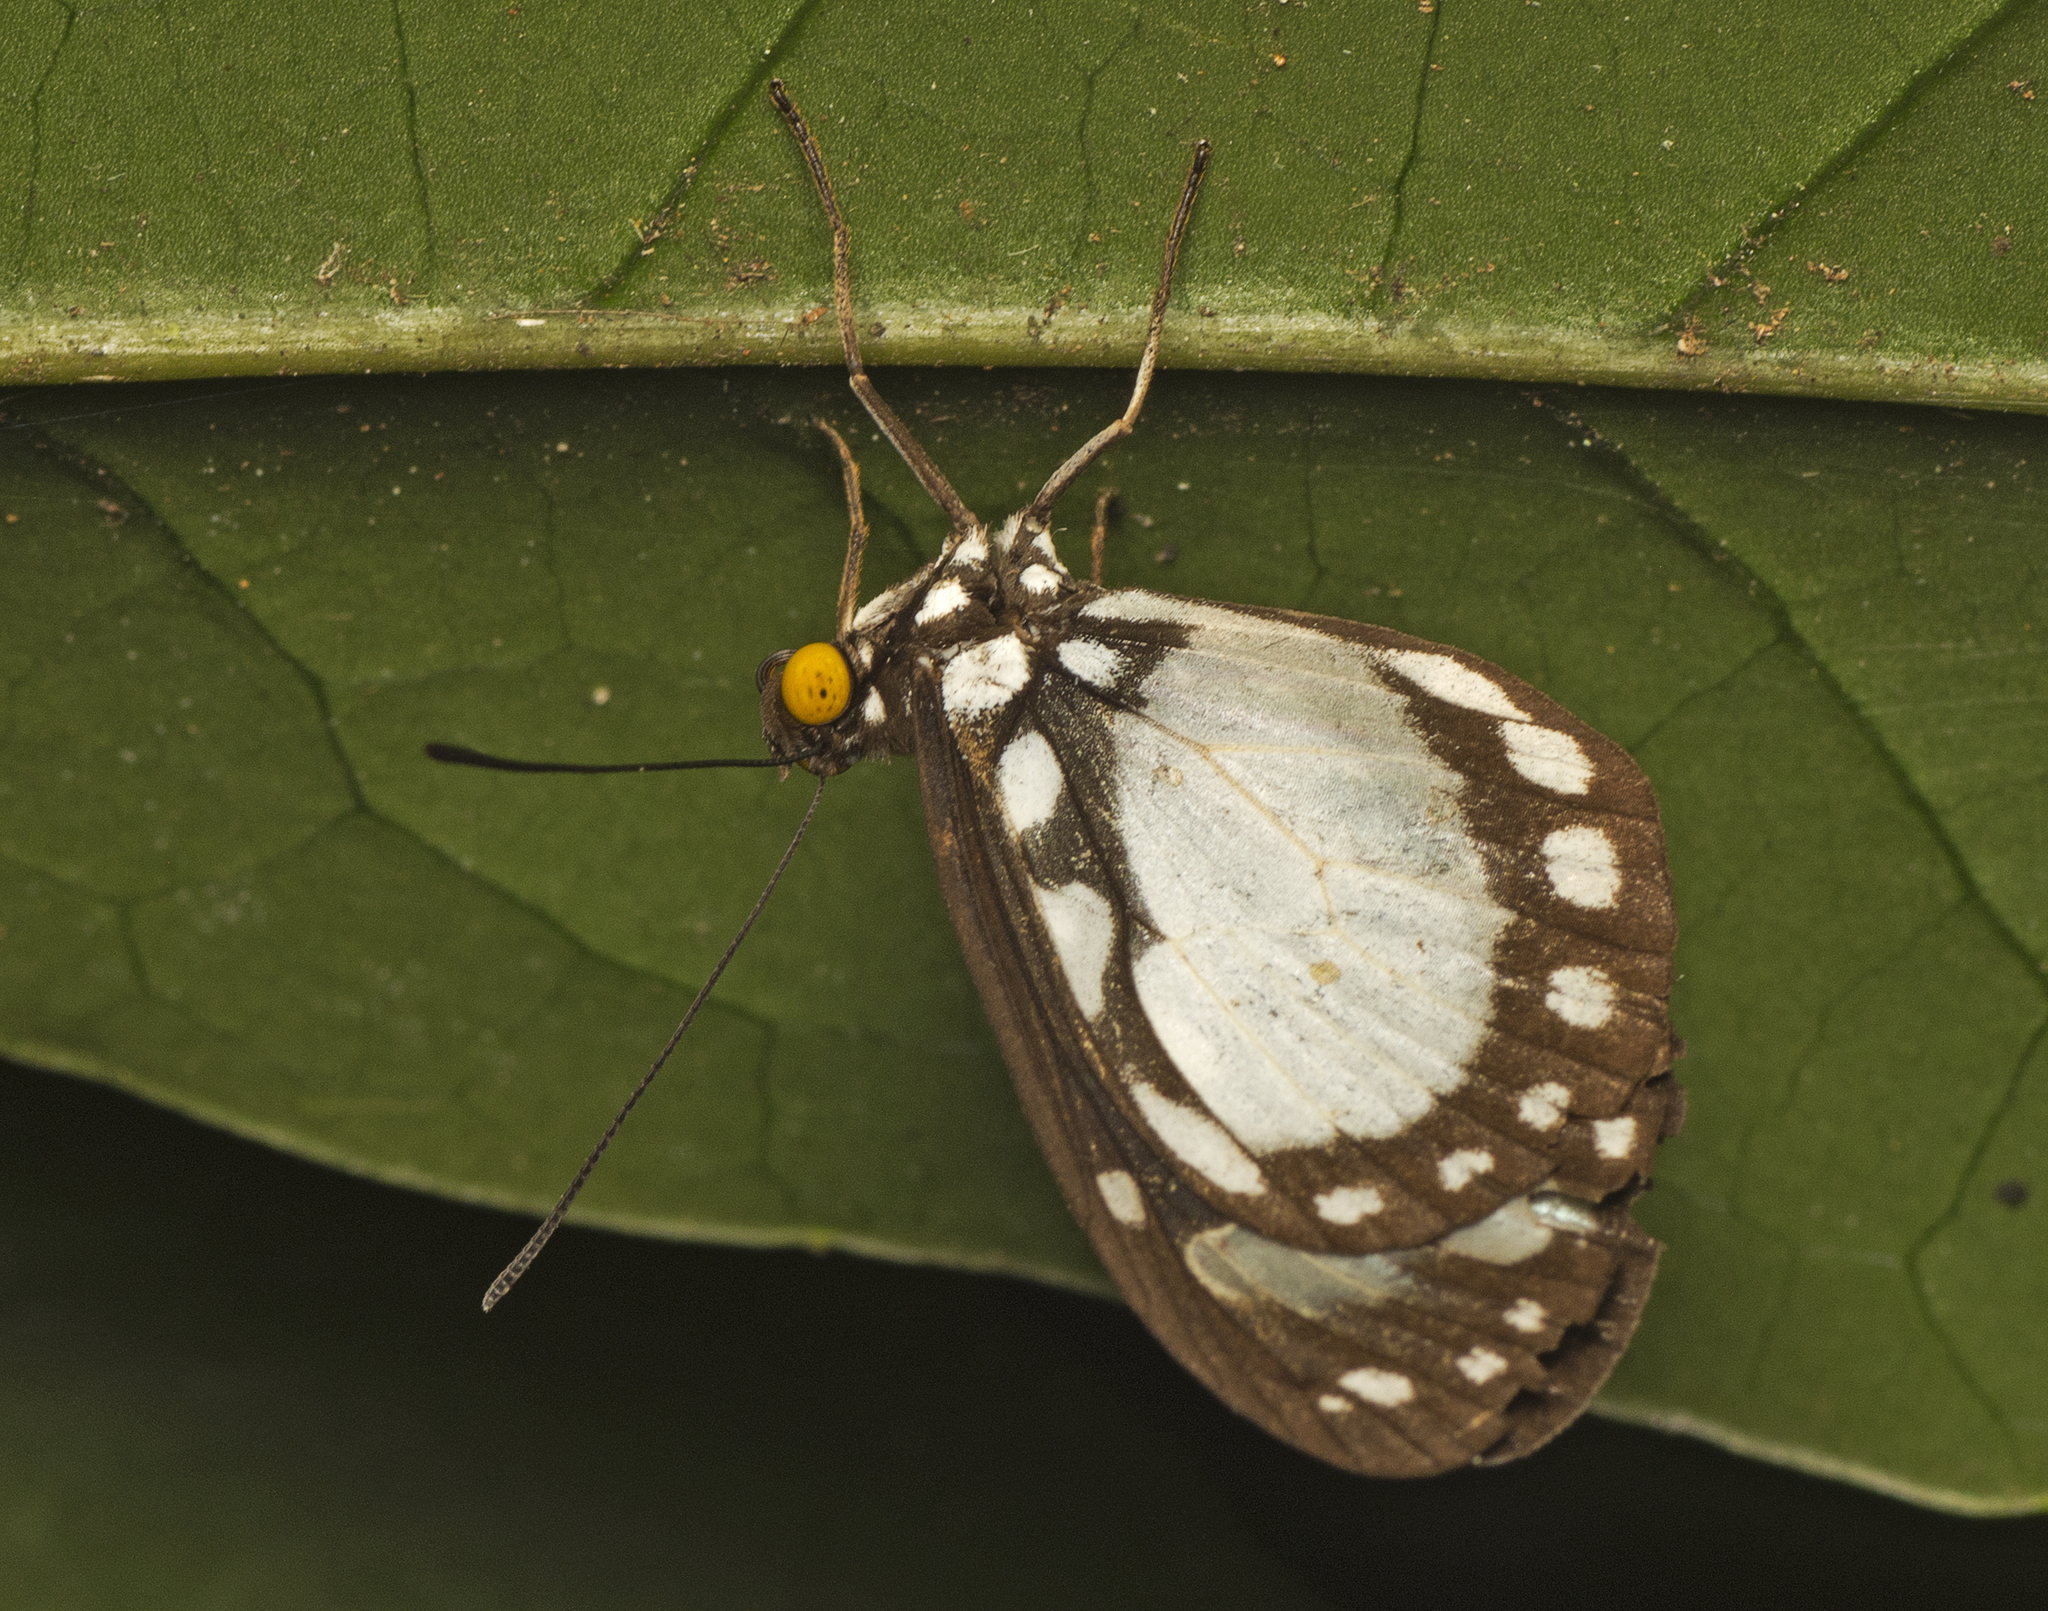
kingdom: Animalia
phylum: Arthropoda
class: Insecta
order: Lepidoptera
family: Nymphalidae
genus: Tellervo
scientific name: Tellervo zoilus
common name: Hamadryad
